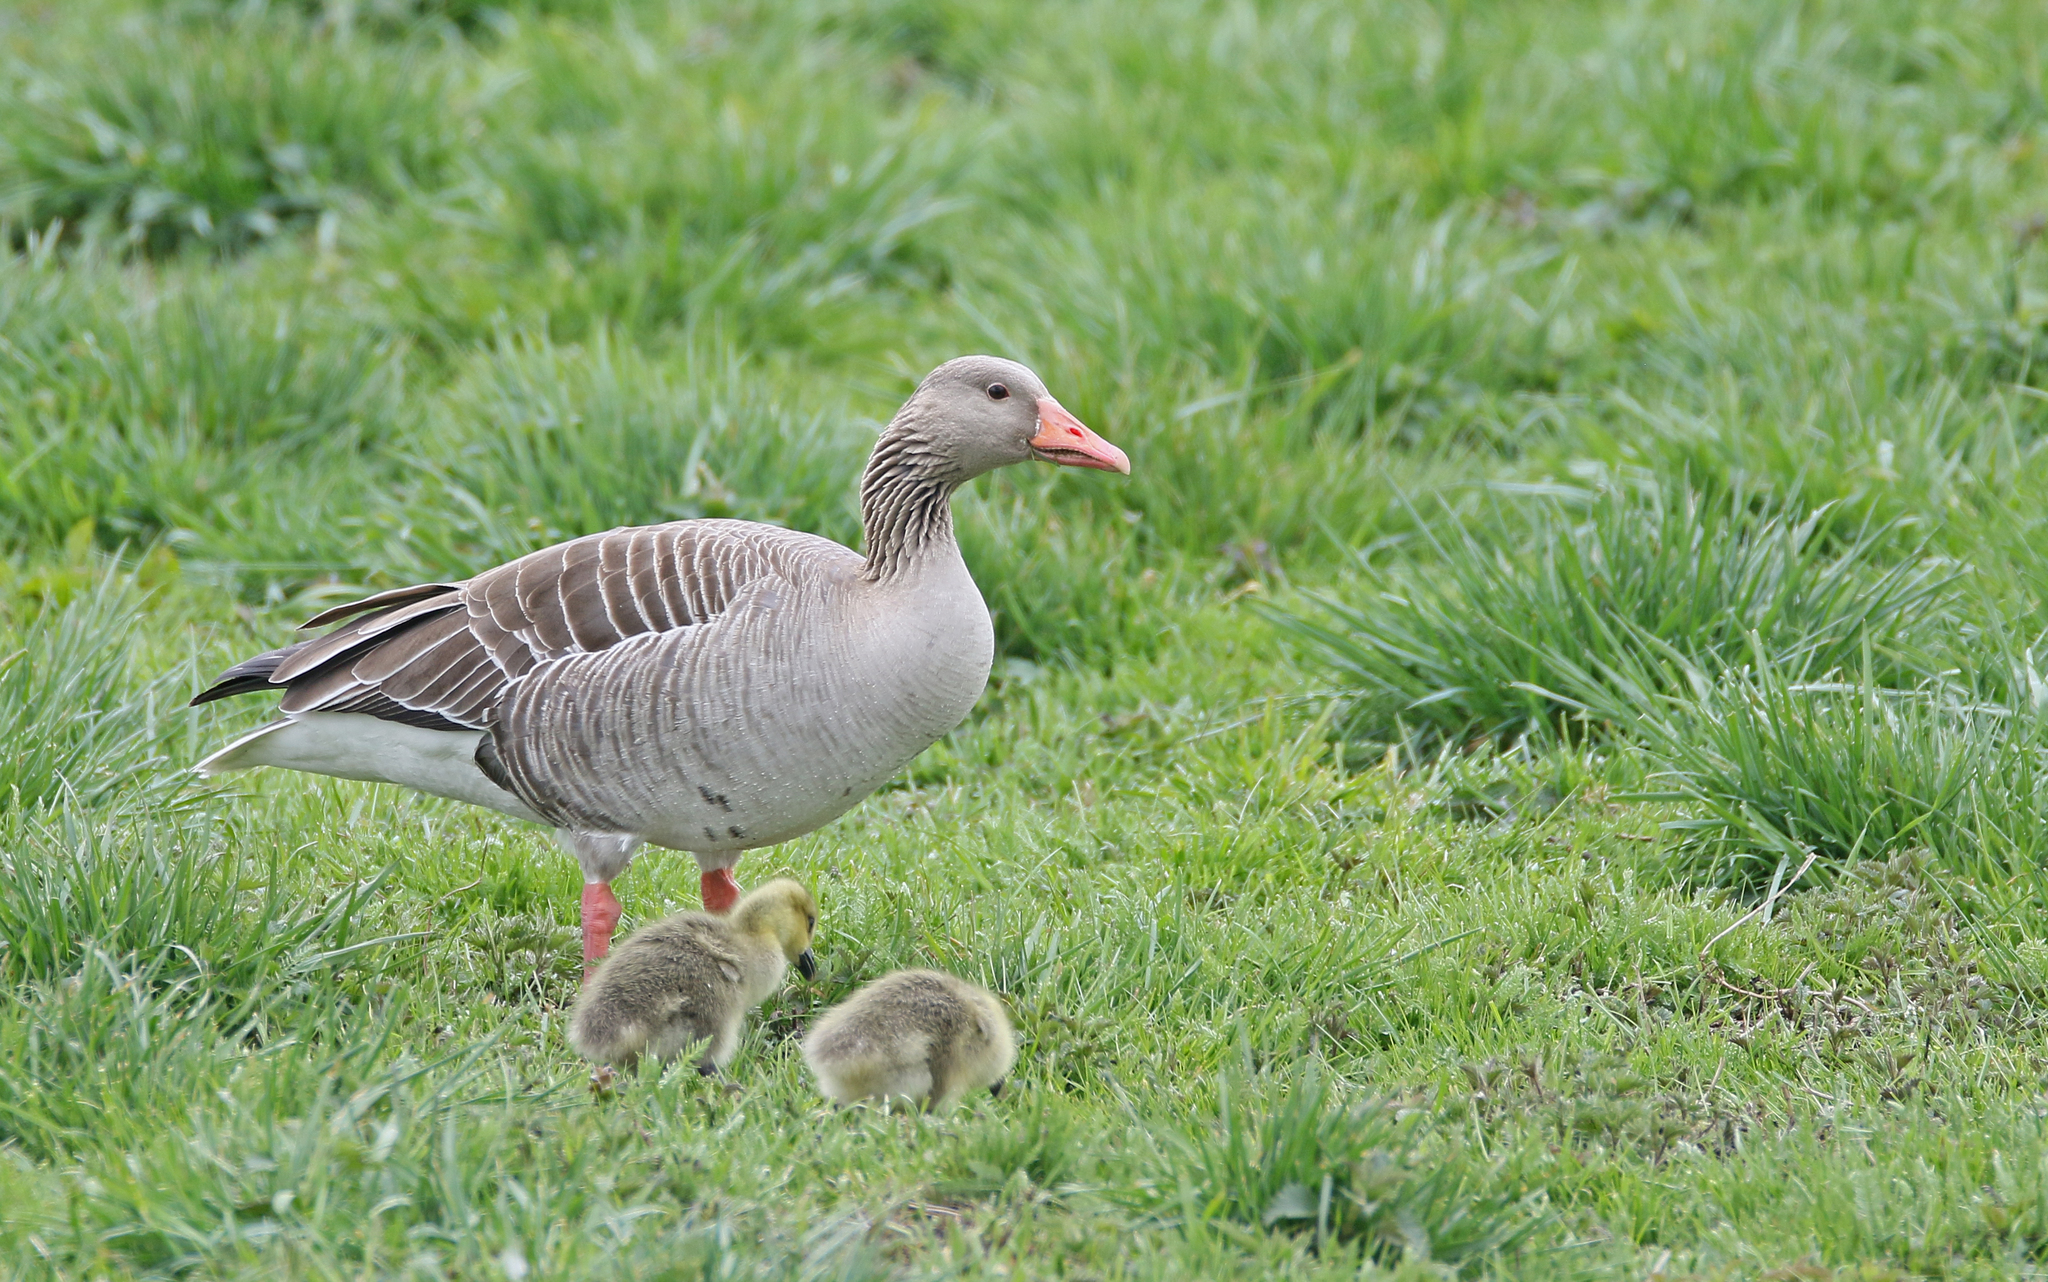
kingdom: Animalia
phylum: Chordata
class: Aves
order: Anseriformes
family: Anatidae
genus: Anser
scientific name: Anser anser
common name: Greylag goose
